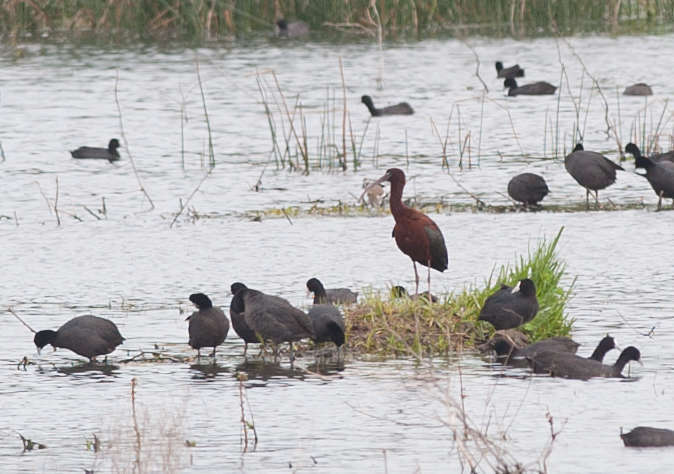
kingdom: Animalia
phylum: Chordata
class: Aves
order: Pelecaniformes
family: Threskiornithidae
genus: Plegadis
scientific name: Plegadis falcinellus
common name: Glossy ibis
